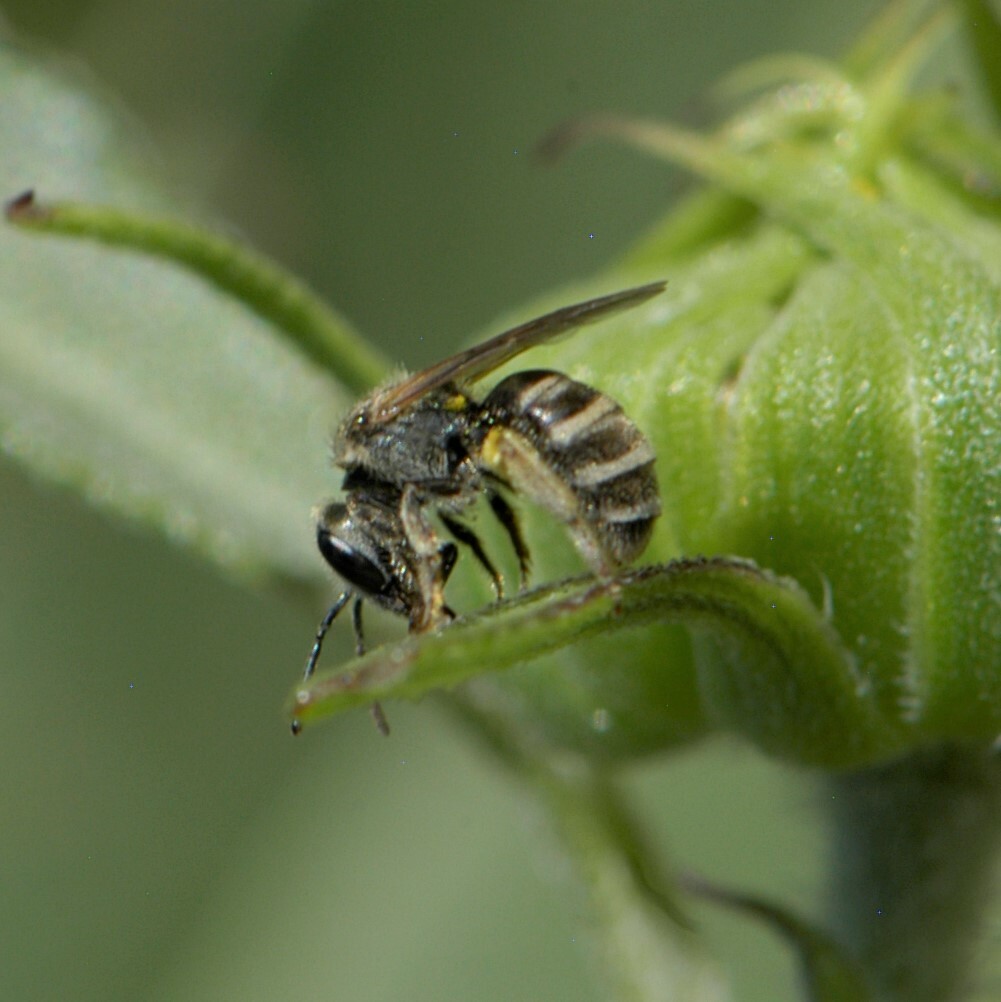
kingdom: Animalia
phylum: Arthropoda
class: Insecta
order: Hymenoptera
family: Halictidae
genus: Halictus
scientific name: Halictus tripartitus
